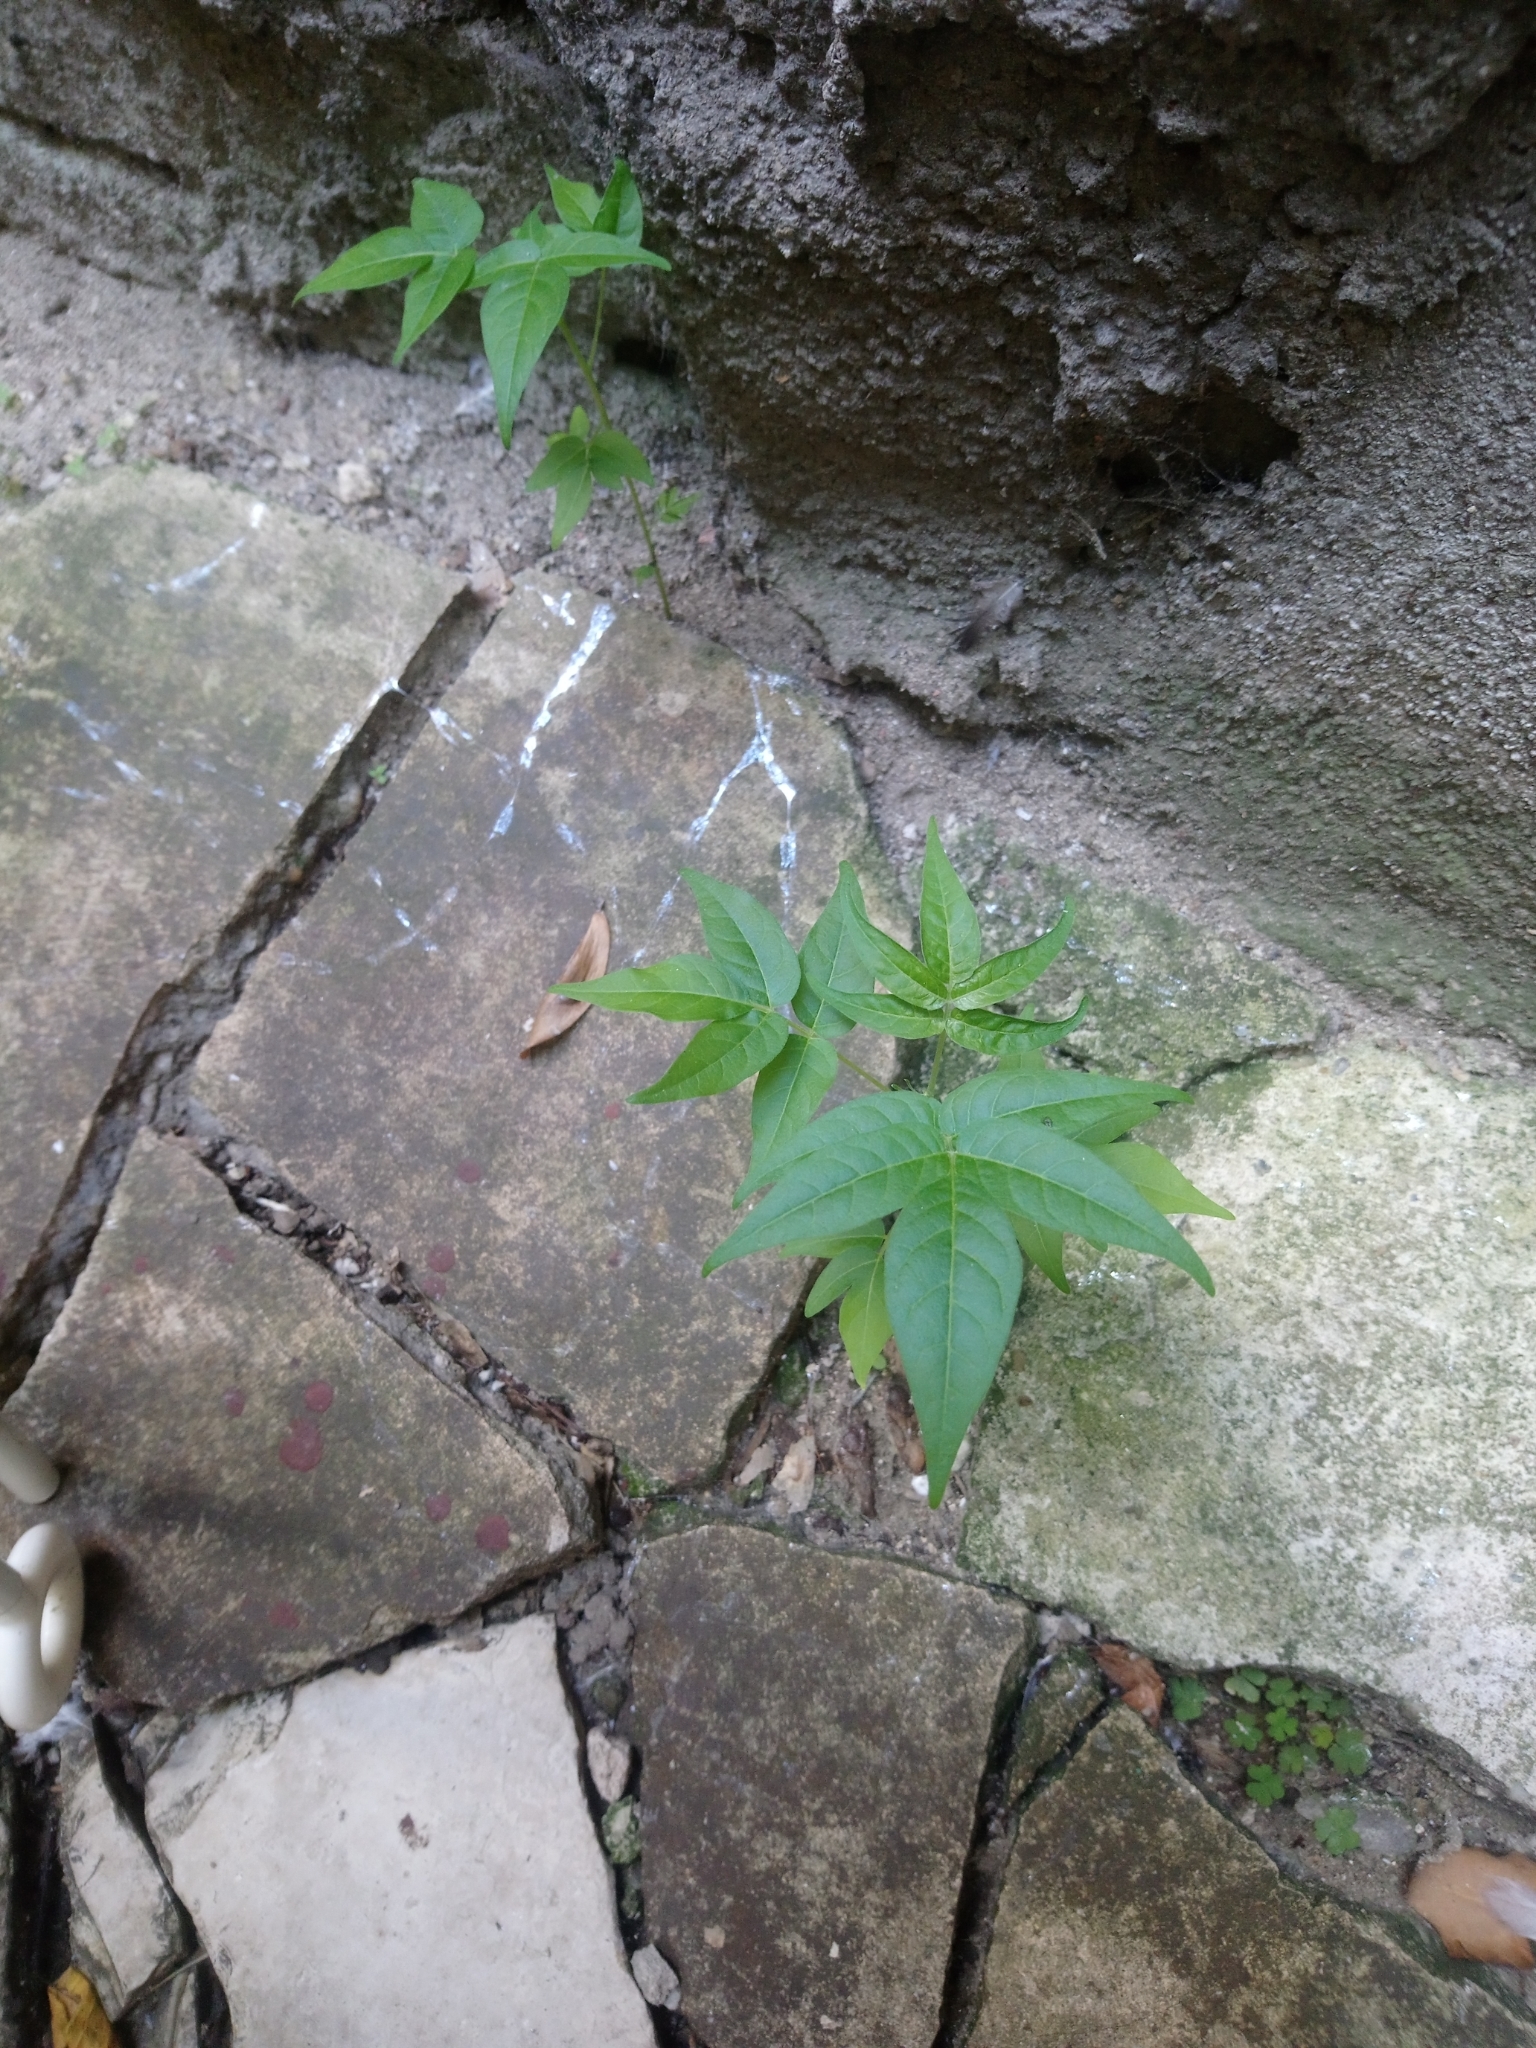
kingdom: Plantae
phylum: Tracheophyta
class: Magnoliopsida
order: Sapindales
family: Simaroubaceae
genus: Ailanthus
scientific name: Ailanthus altissima
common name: Tree-of-heaven
